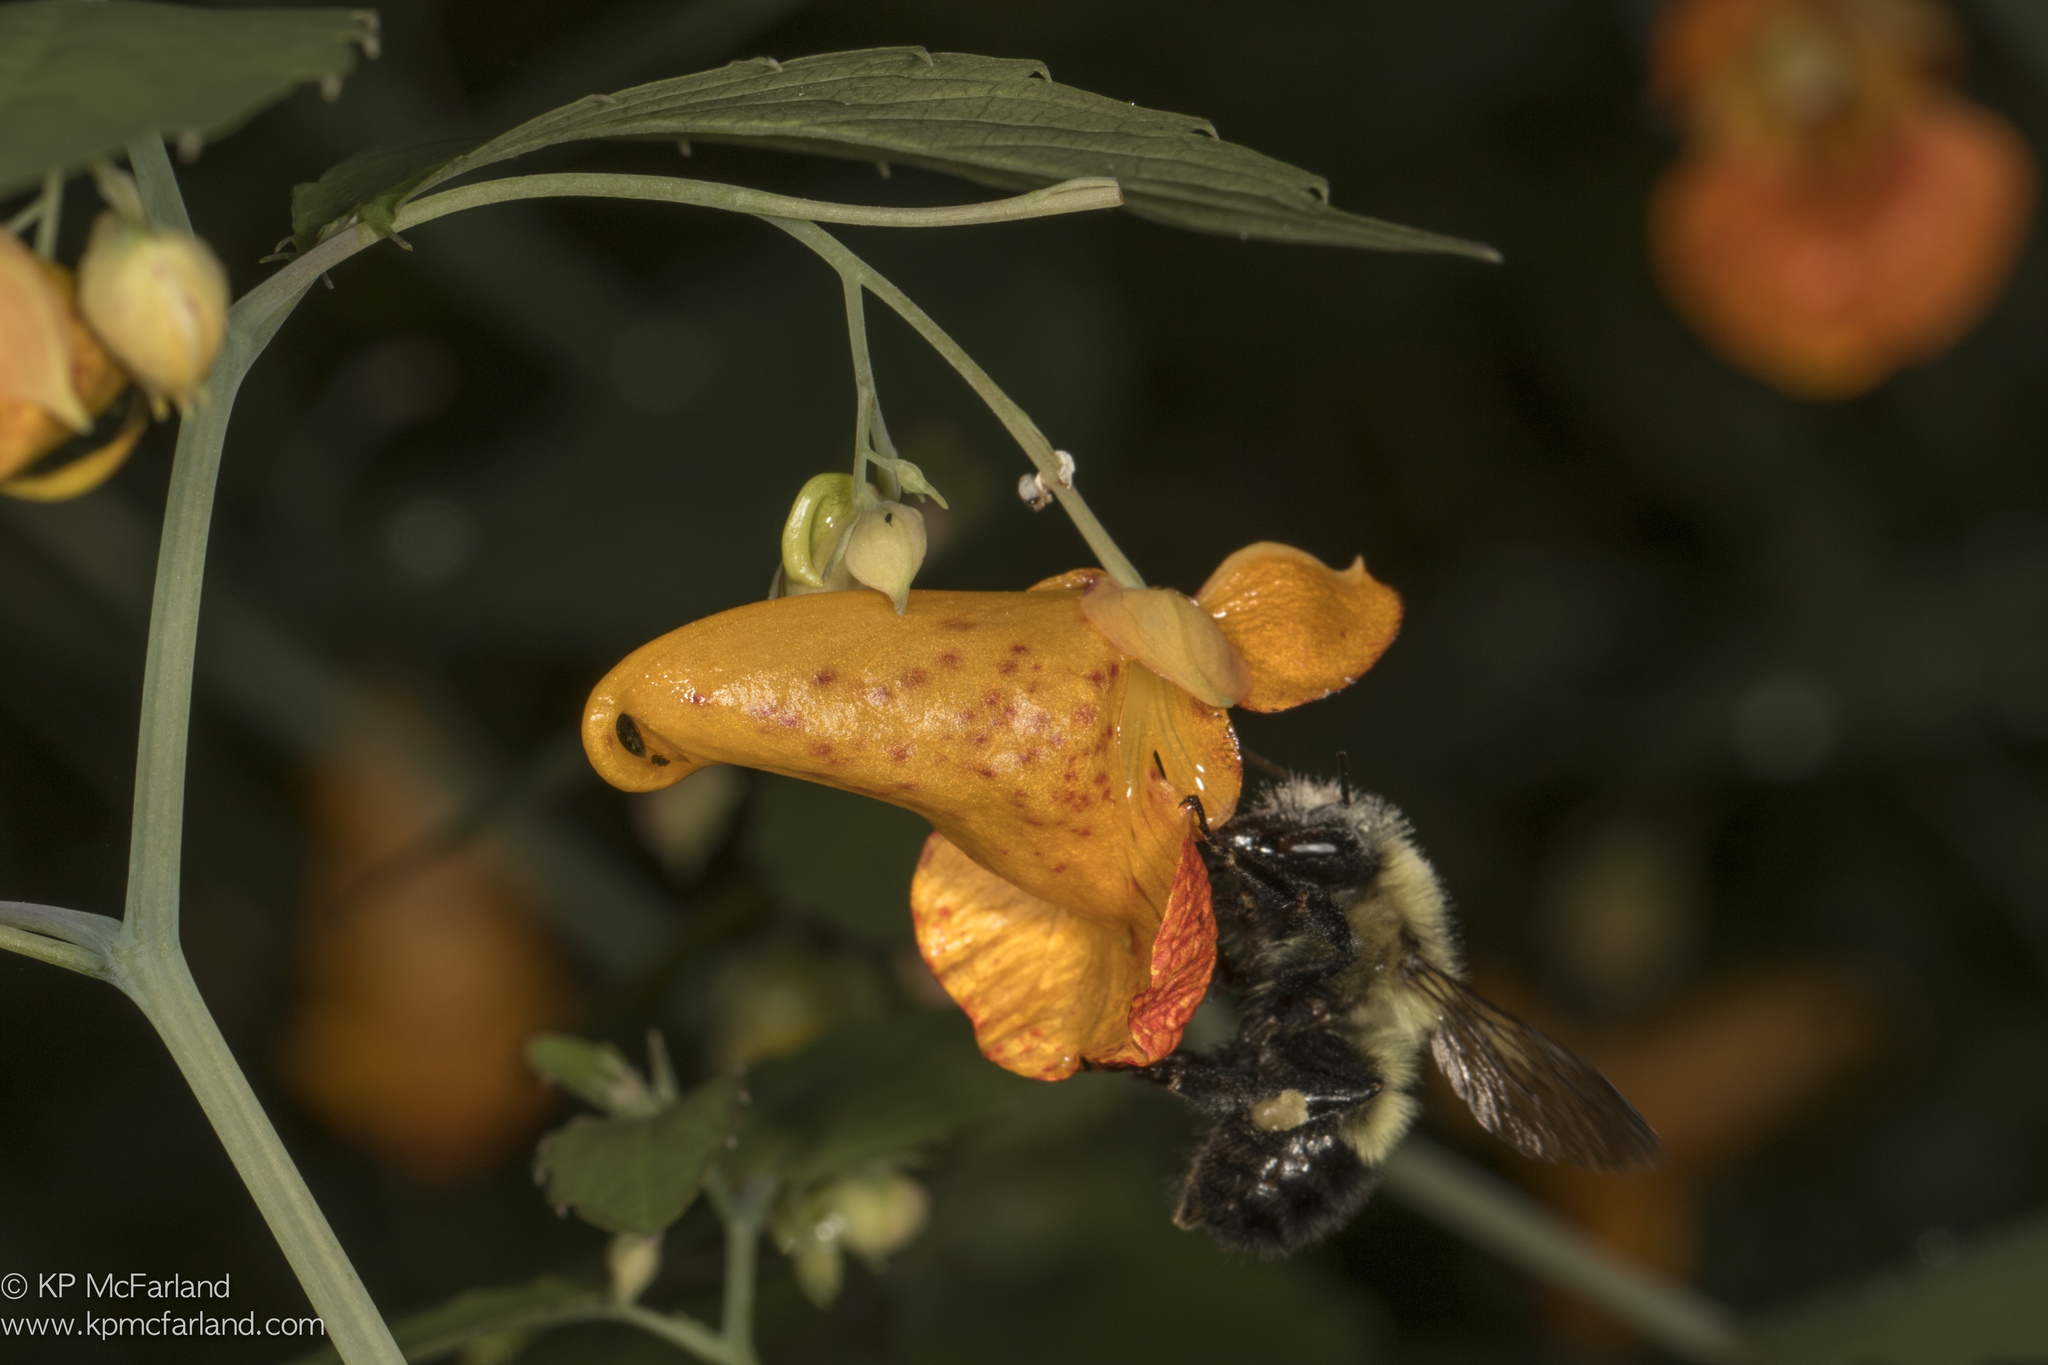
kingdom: Animalia
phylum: Arthropoda
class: Insecta
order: Hymenoptera
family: Apidae
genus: Pyrobombus
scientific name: Pyrobombus
